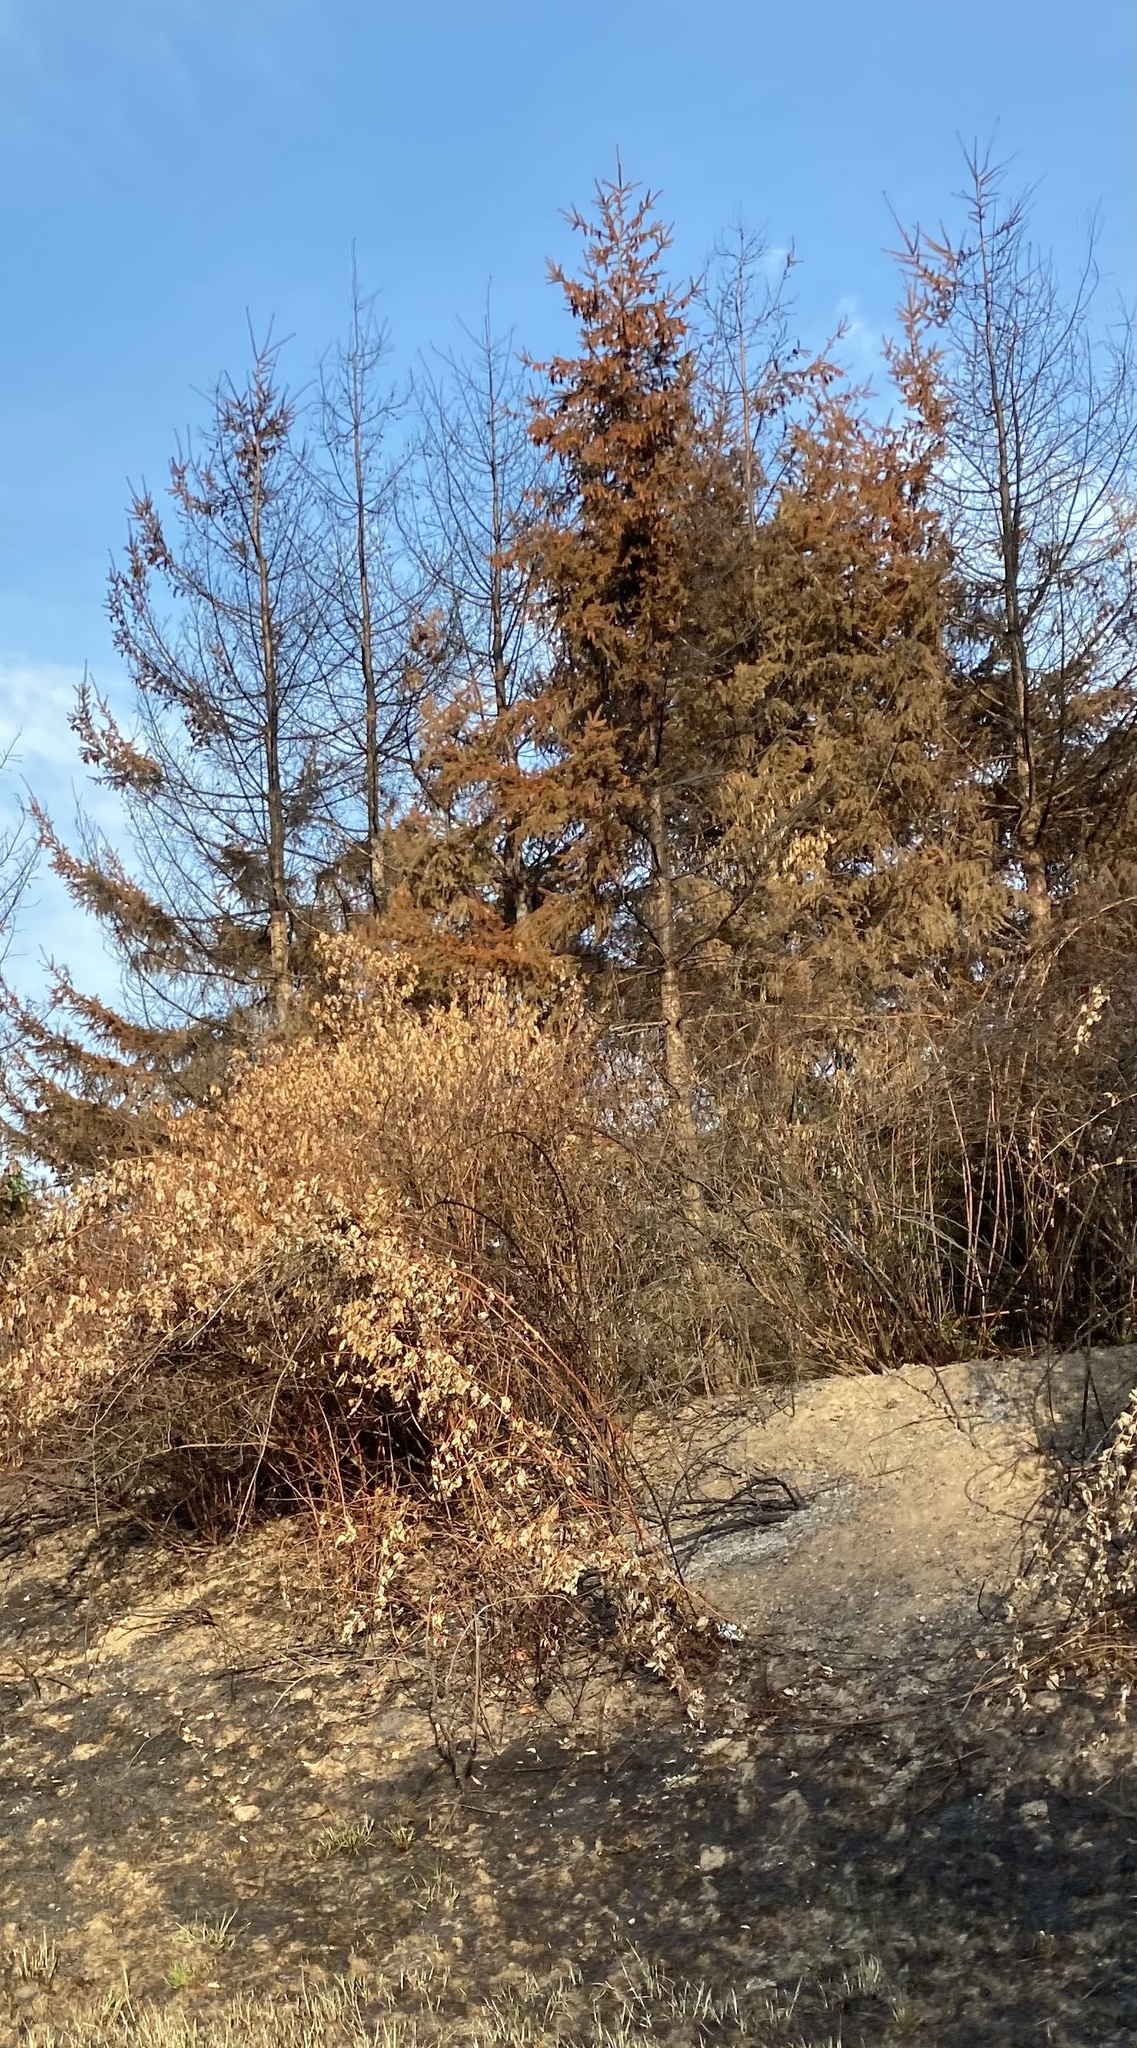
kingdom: Plantae
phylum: Tracheophyta
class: Pinopsida
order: Pinales
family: Pinaceae
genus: Pseudotsuga
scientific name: Pseudotsuga menziesii
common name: Douglas fir
